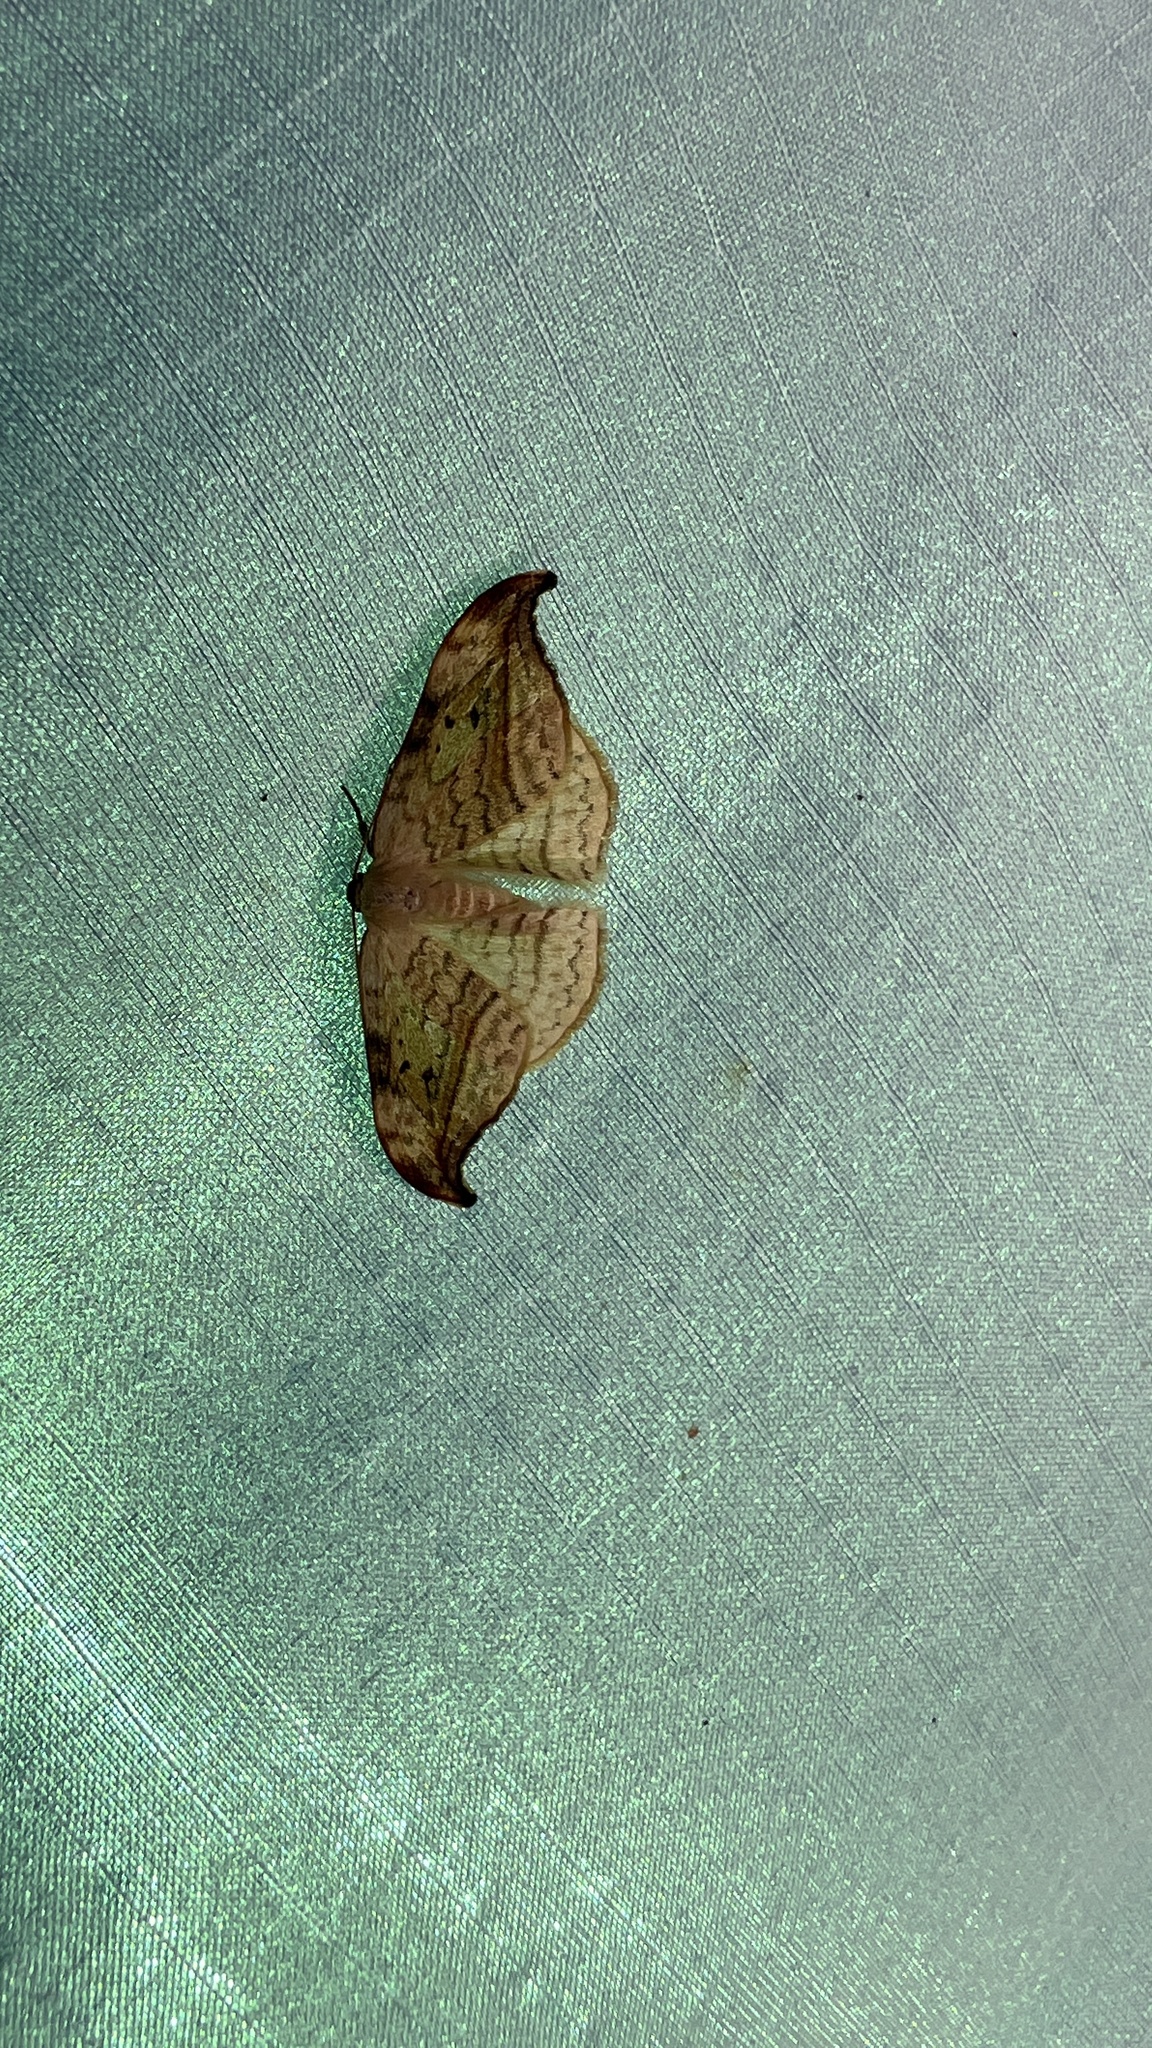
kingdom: Animalia
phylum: Arthropoda
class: Insecta
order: Lepidoptera
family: Drepanidae
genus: Drepana
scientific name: Drepana arcuata
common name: Arched hooktip moth
